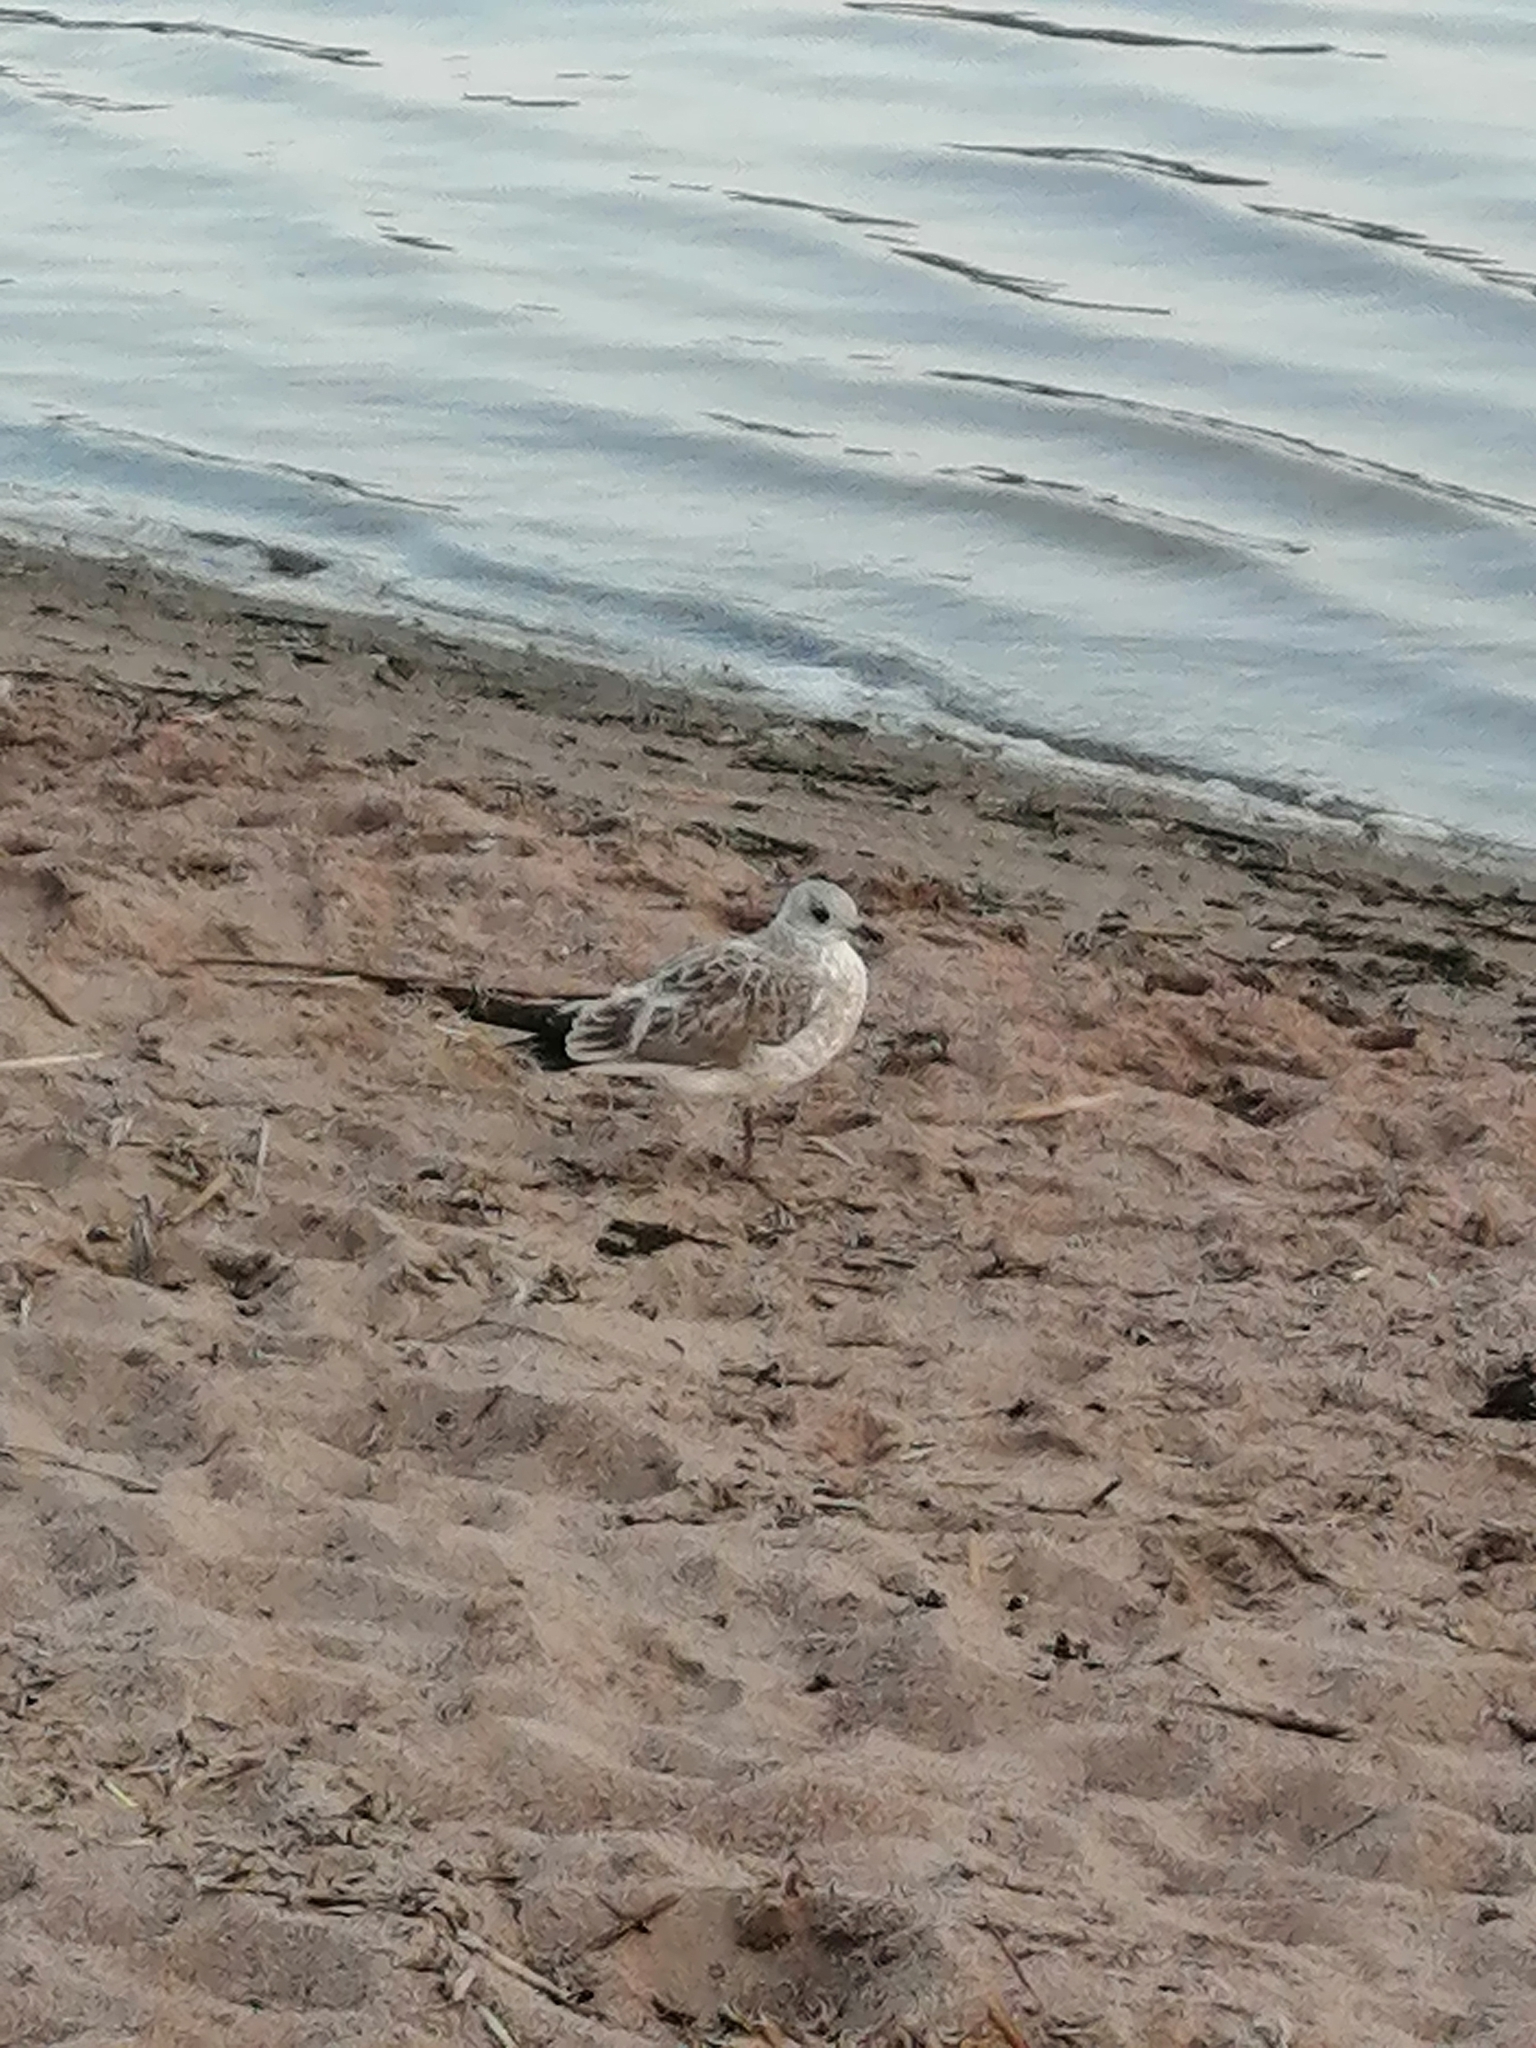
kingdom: Animalia
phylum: Chordata
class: Aves
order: Charadriiformes
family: Laridae
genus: Larus
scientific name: Larus canus
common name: Mew gull
